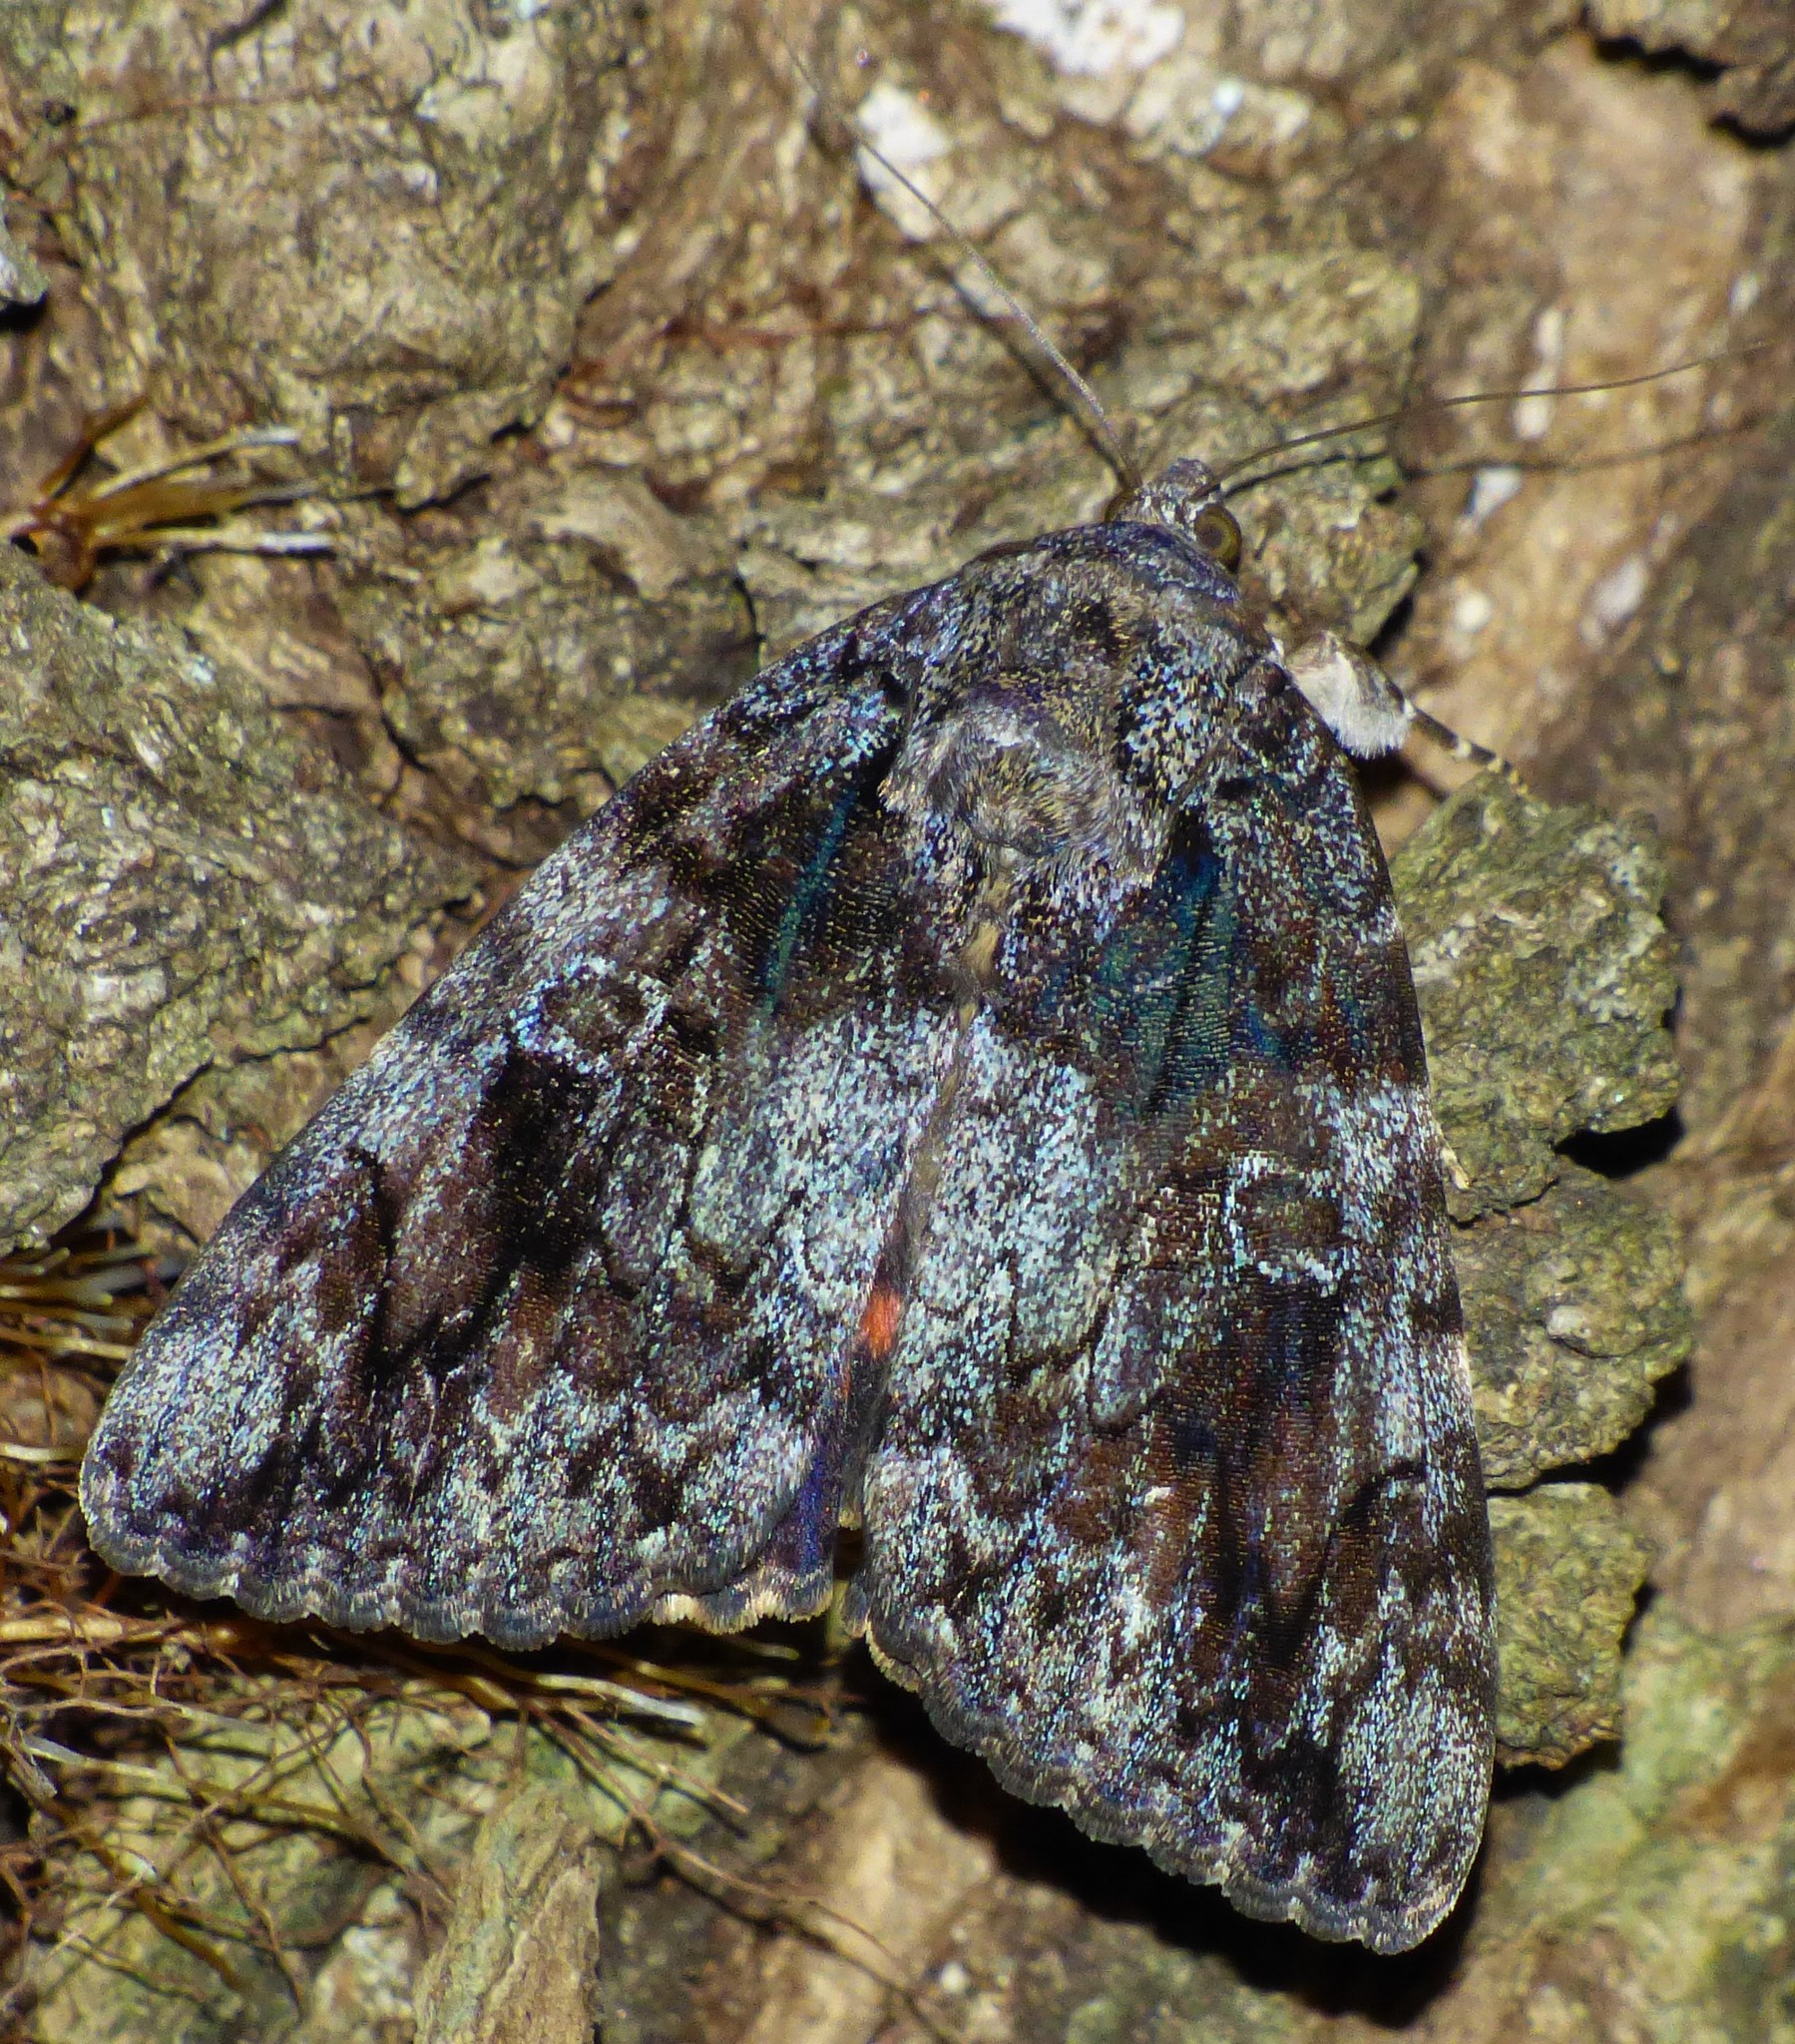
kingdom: Animalia
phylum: Arthropoda
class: Insecta
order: Lepidoptera
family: Erebidae
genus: Catocala
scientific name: Catocala ilia
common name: Ilia underwing
